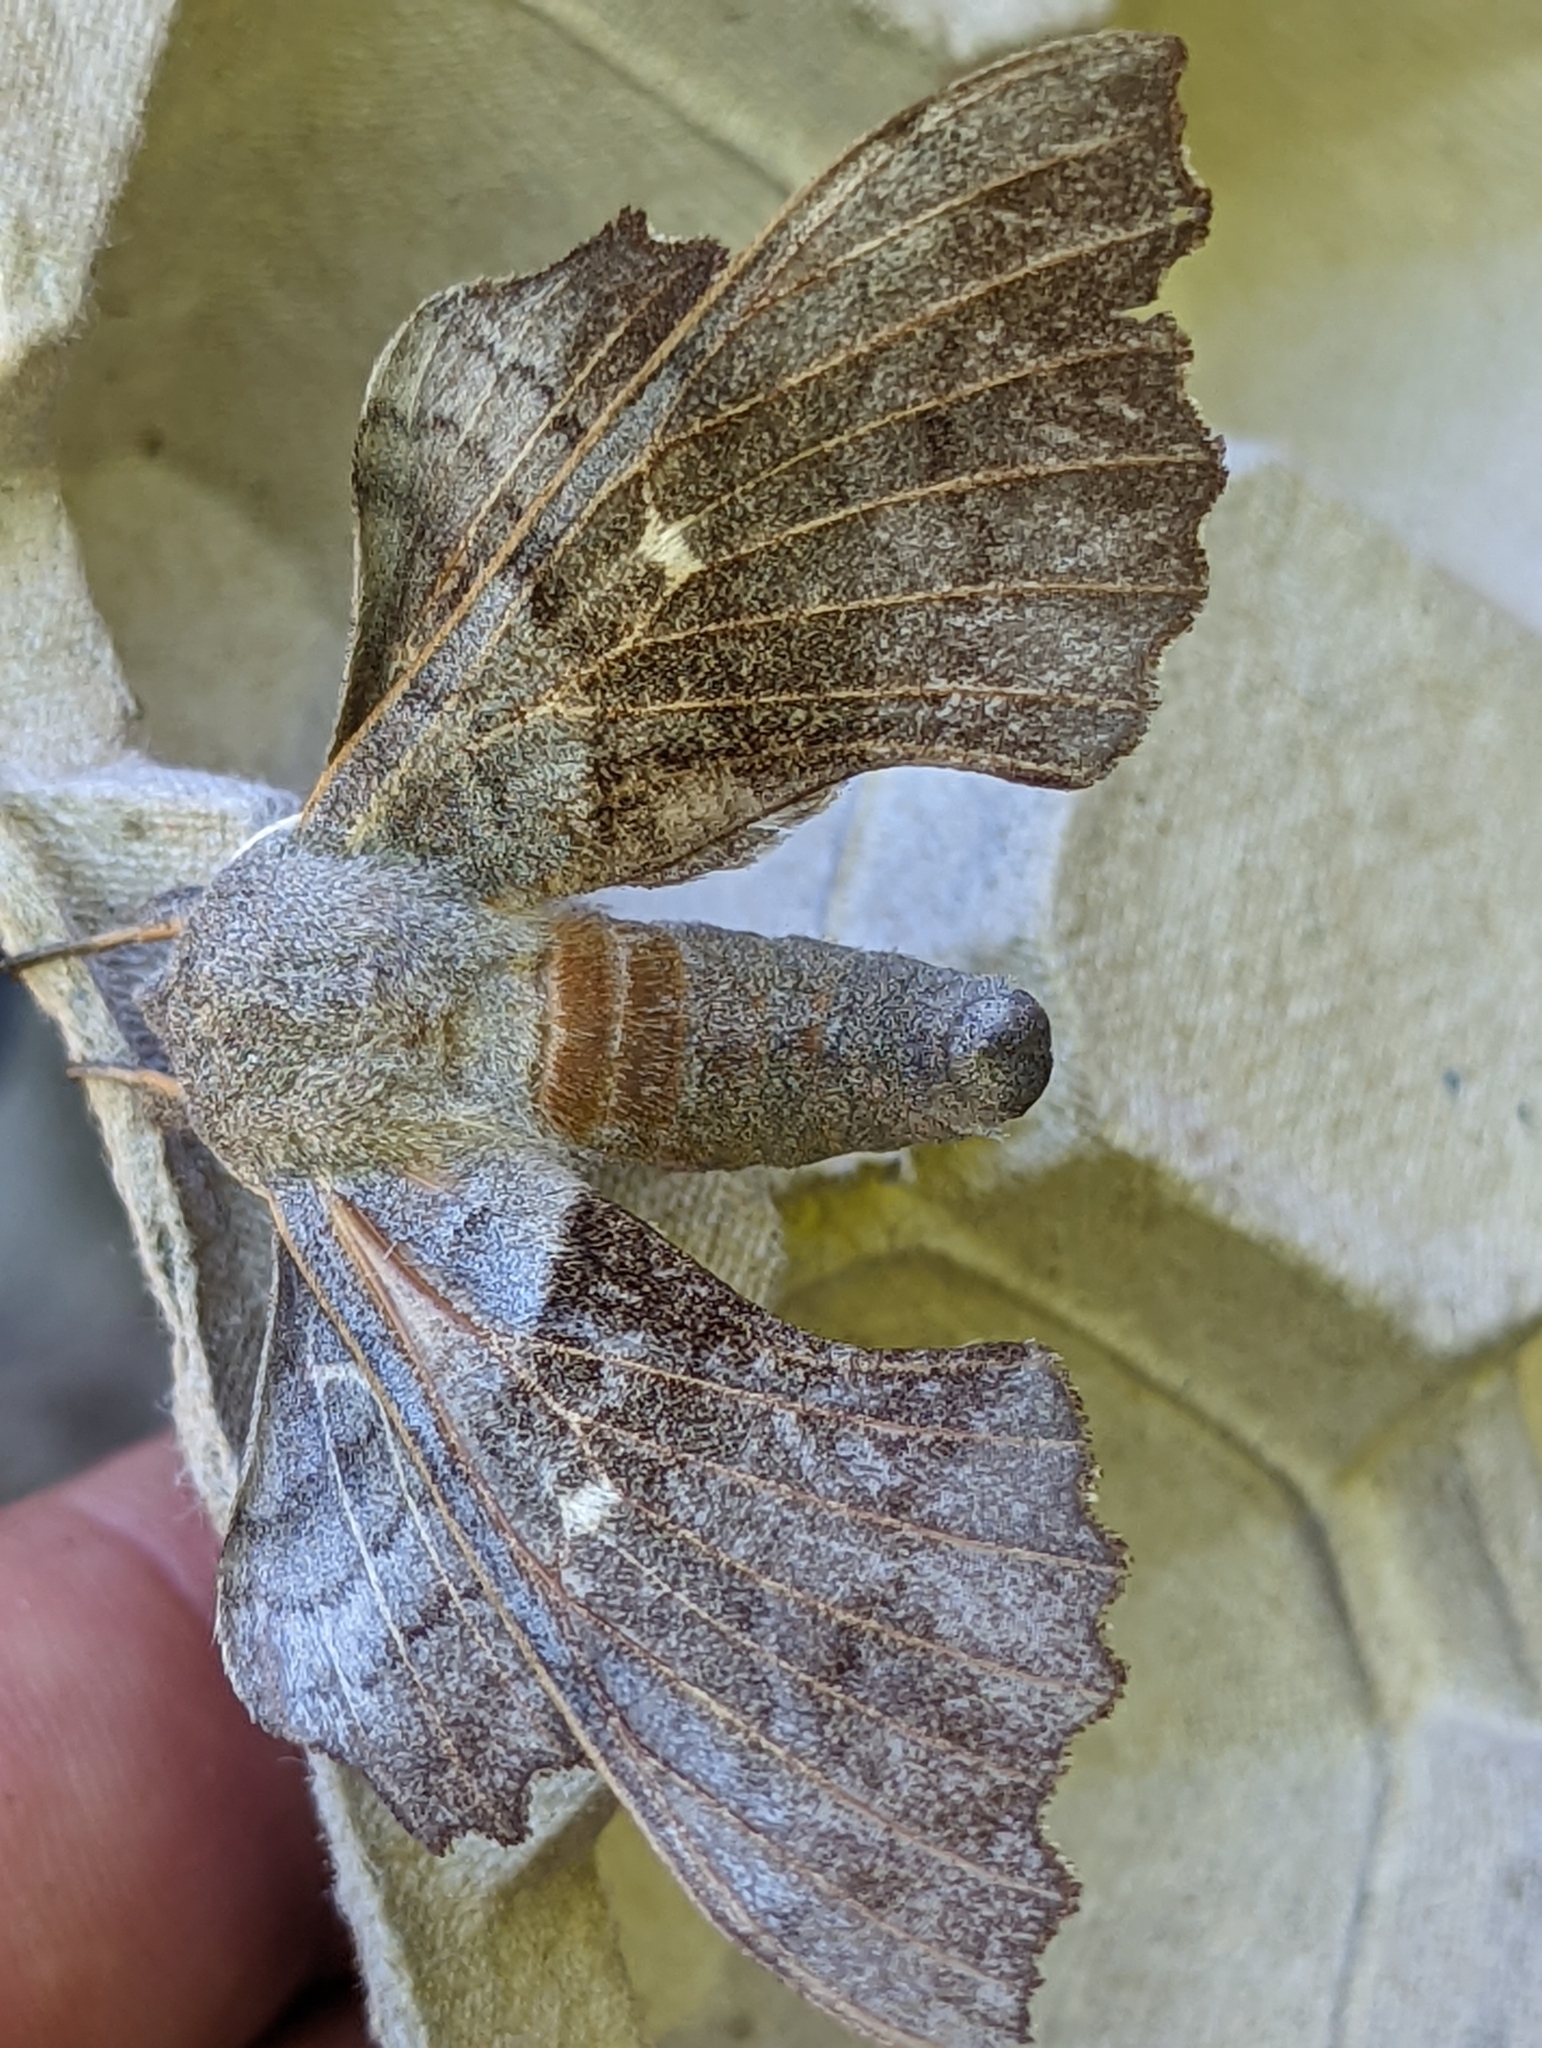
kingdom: Animalia
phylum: Arthropoda
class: Insecta
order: Lepidoptera
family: Sphingidae
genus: Laothoe
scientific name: Laothoe populi
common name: Poplar hawk-moth
